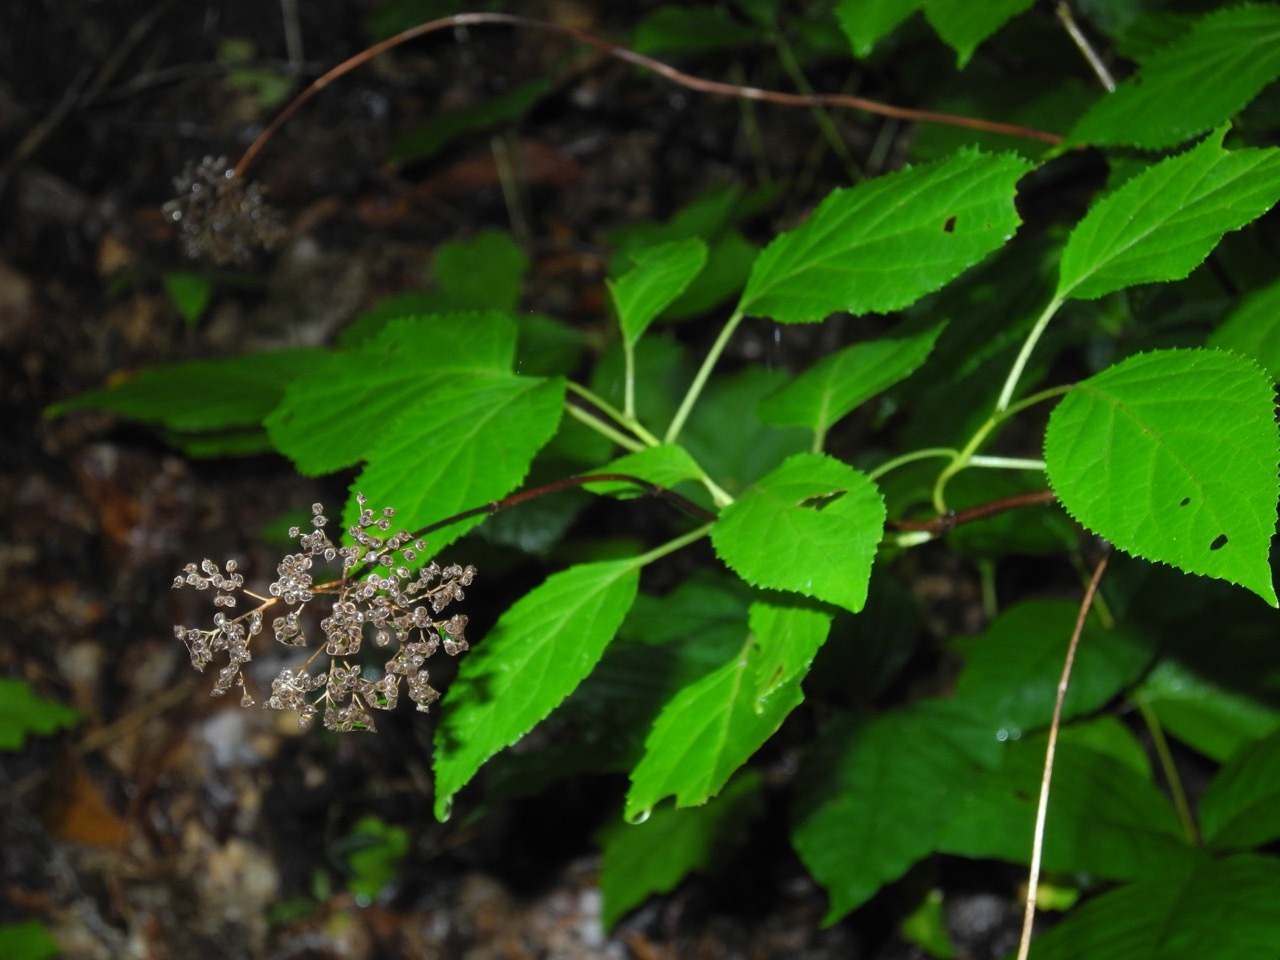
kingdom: Plantae
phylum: Tracheophyta
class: Magnoliopsida
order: Cornales
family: Hydrangeaceae
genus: Hydrangea
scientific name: Hydrangea arborescens
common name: Sevenbark
